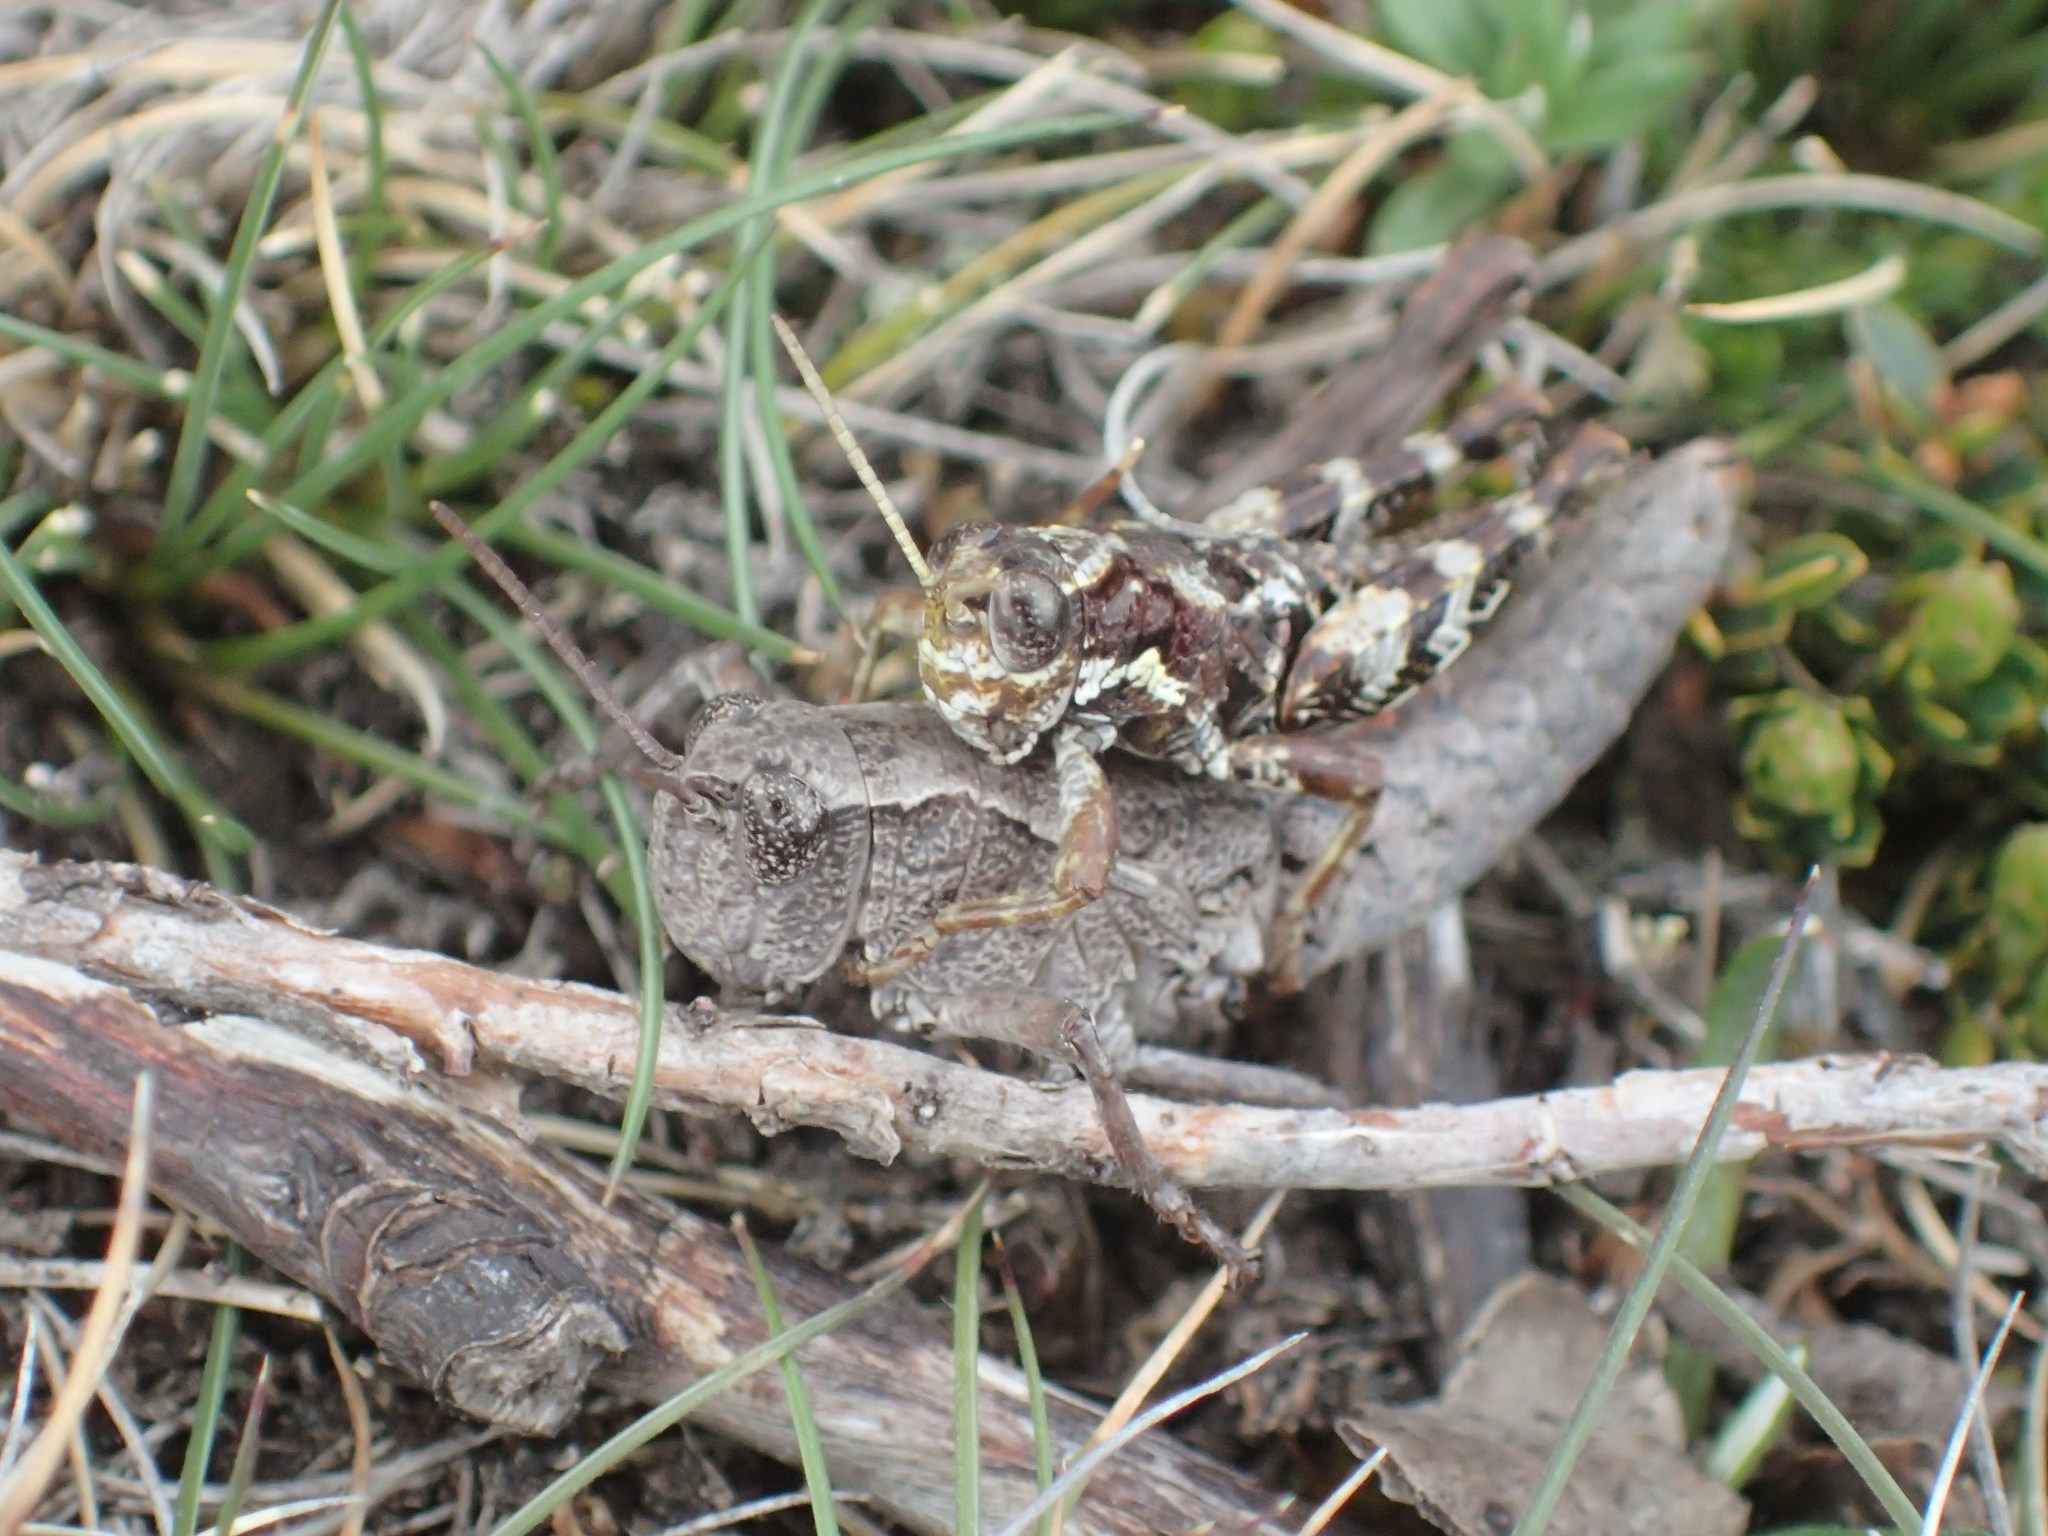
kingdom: Animalia
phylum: Arthropoda
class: Insecta
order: Orthoptera
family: Acrididae
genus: Tasmaniacris
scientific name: Tasmaniacris tasmaniensis
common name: Tasmanian grasshopper
